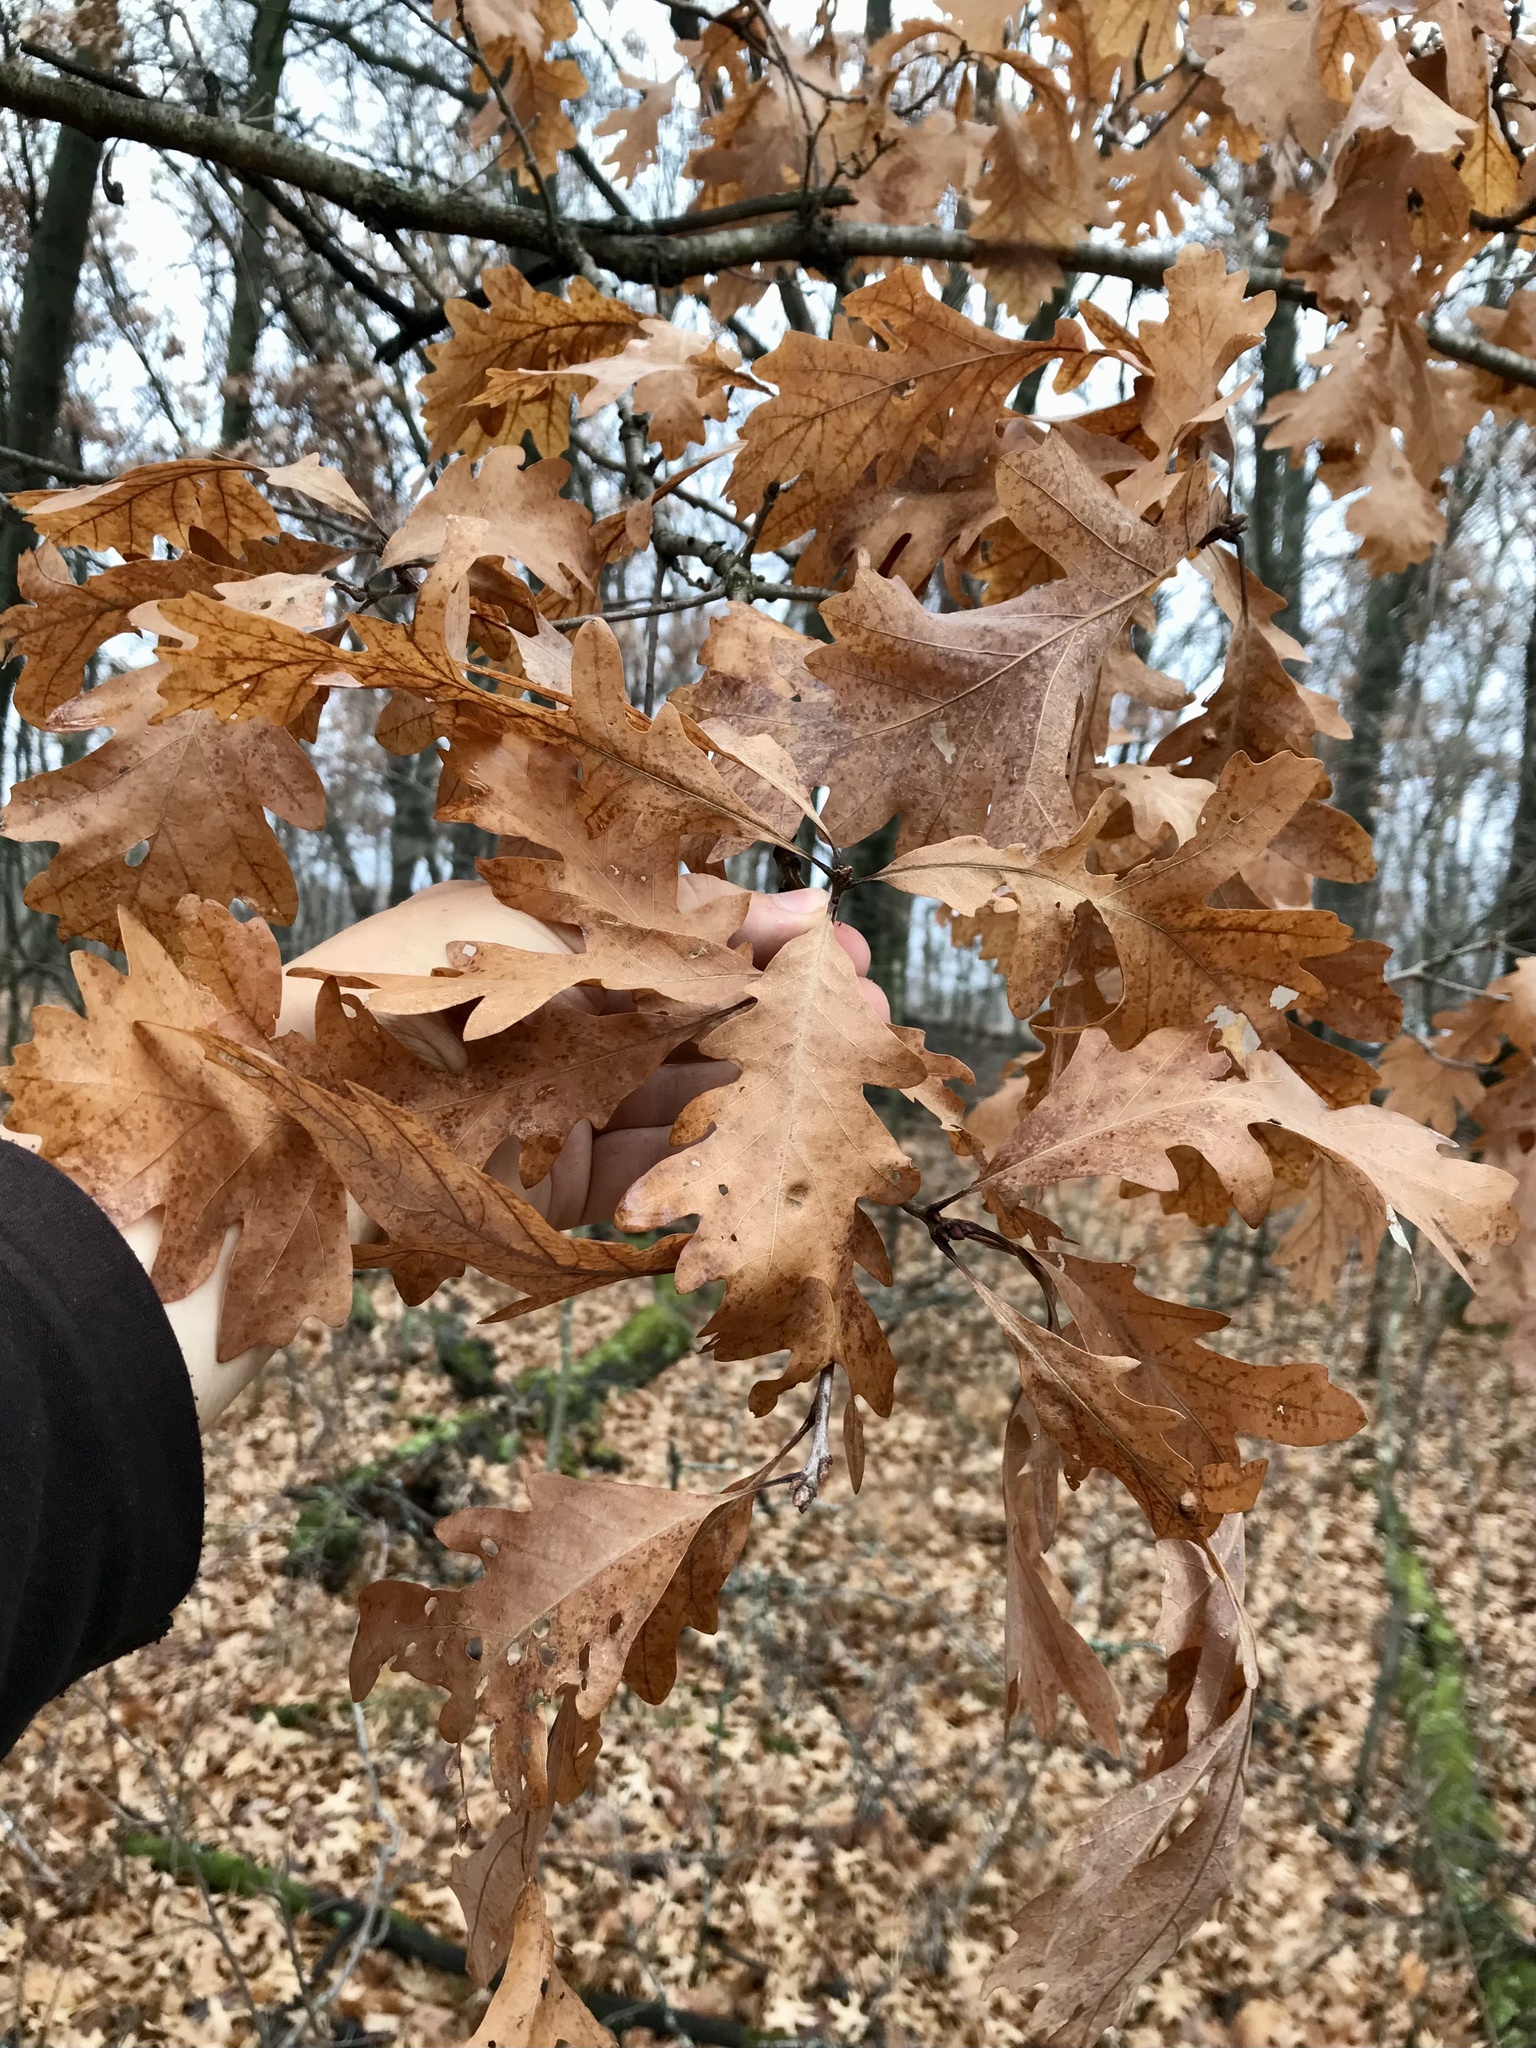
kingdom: Plantae
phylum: Tracheophyta
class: Magnoliopsida
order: Fagales
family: Fagaceae
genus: Quercus
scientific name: Quercus bebbiana
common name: Bebb's oak
